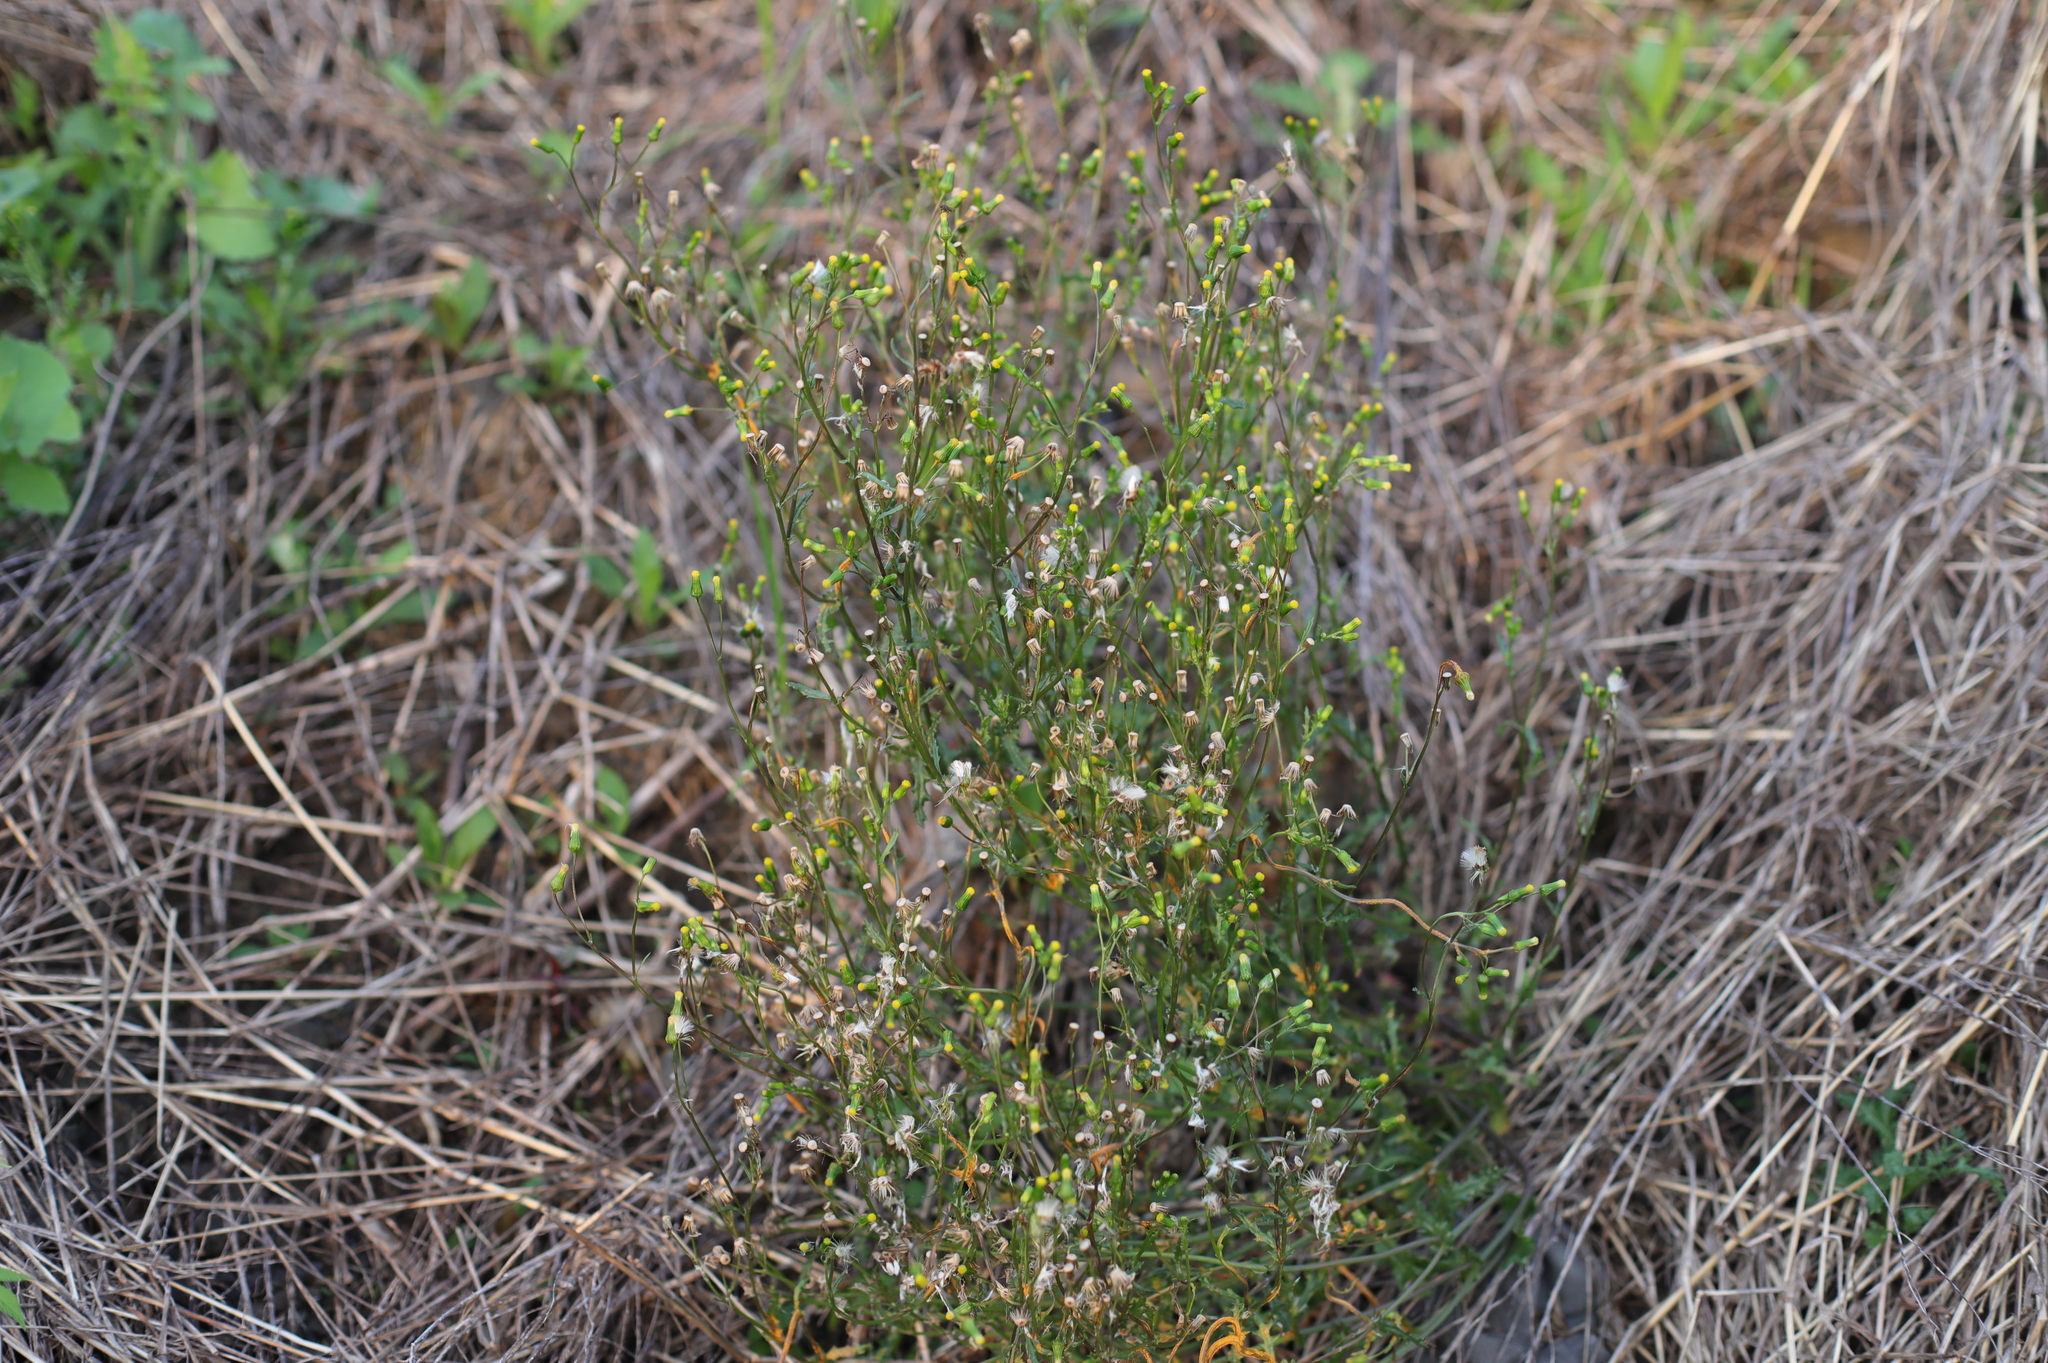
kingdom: Plantae
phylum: Tracheophyta
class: Magnoliopsida
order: Asterales
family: Asteraceae
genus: Senecio
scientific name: Senecio vulgaris
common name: Old-man-in-the-spring
